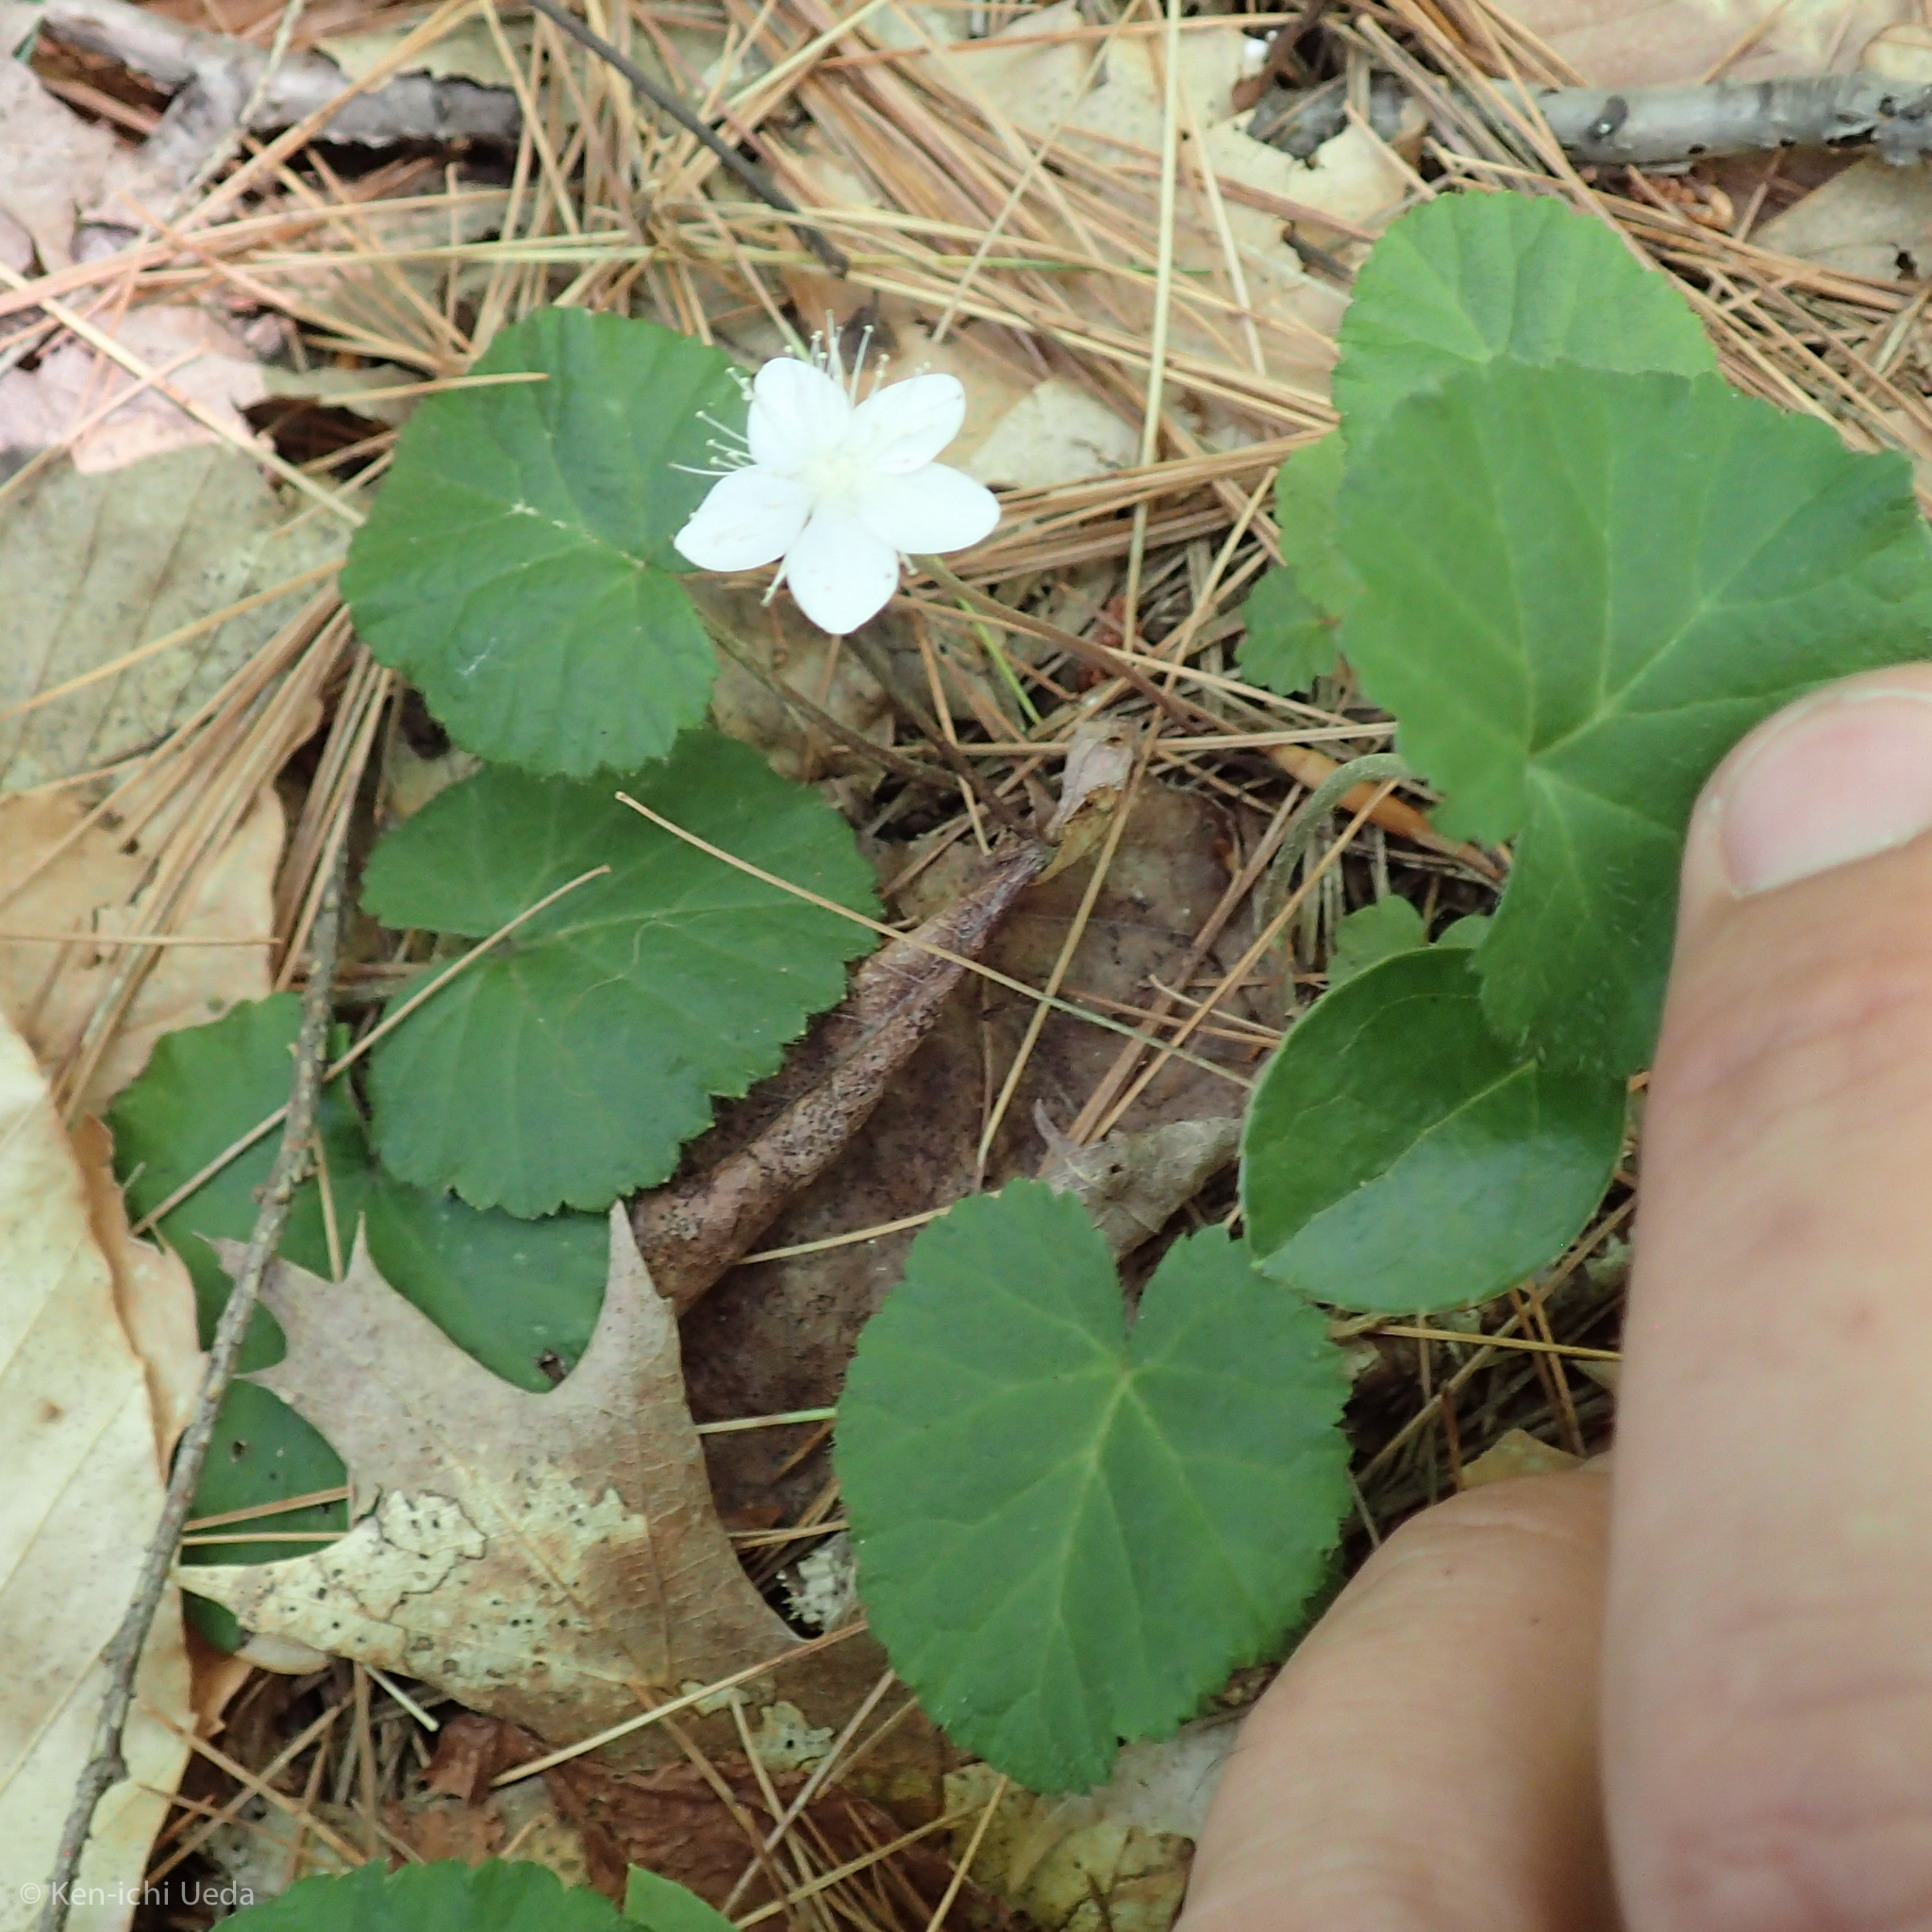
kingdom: Plantae
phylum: Tracheophyta
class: Magnoliopsida
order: Rosales
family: Rosaceae
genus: Dalibarda
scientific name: Dalibarda repens
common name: Dewdrop
